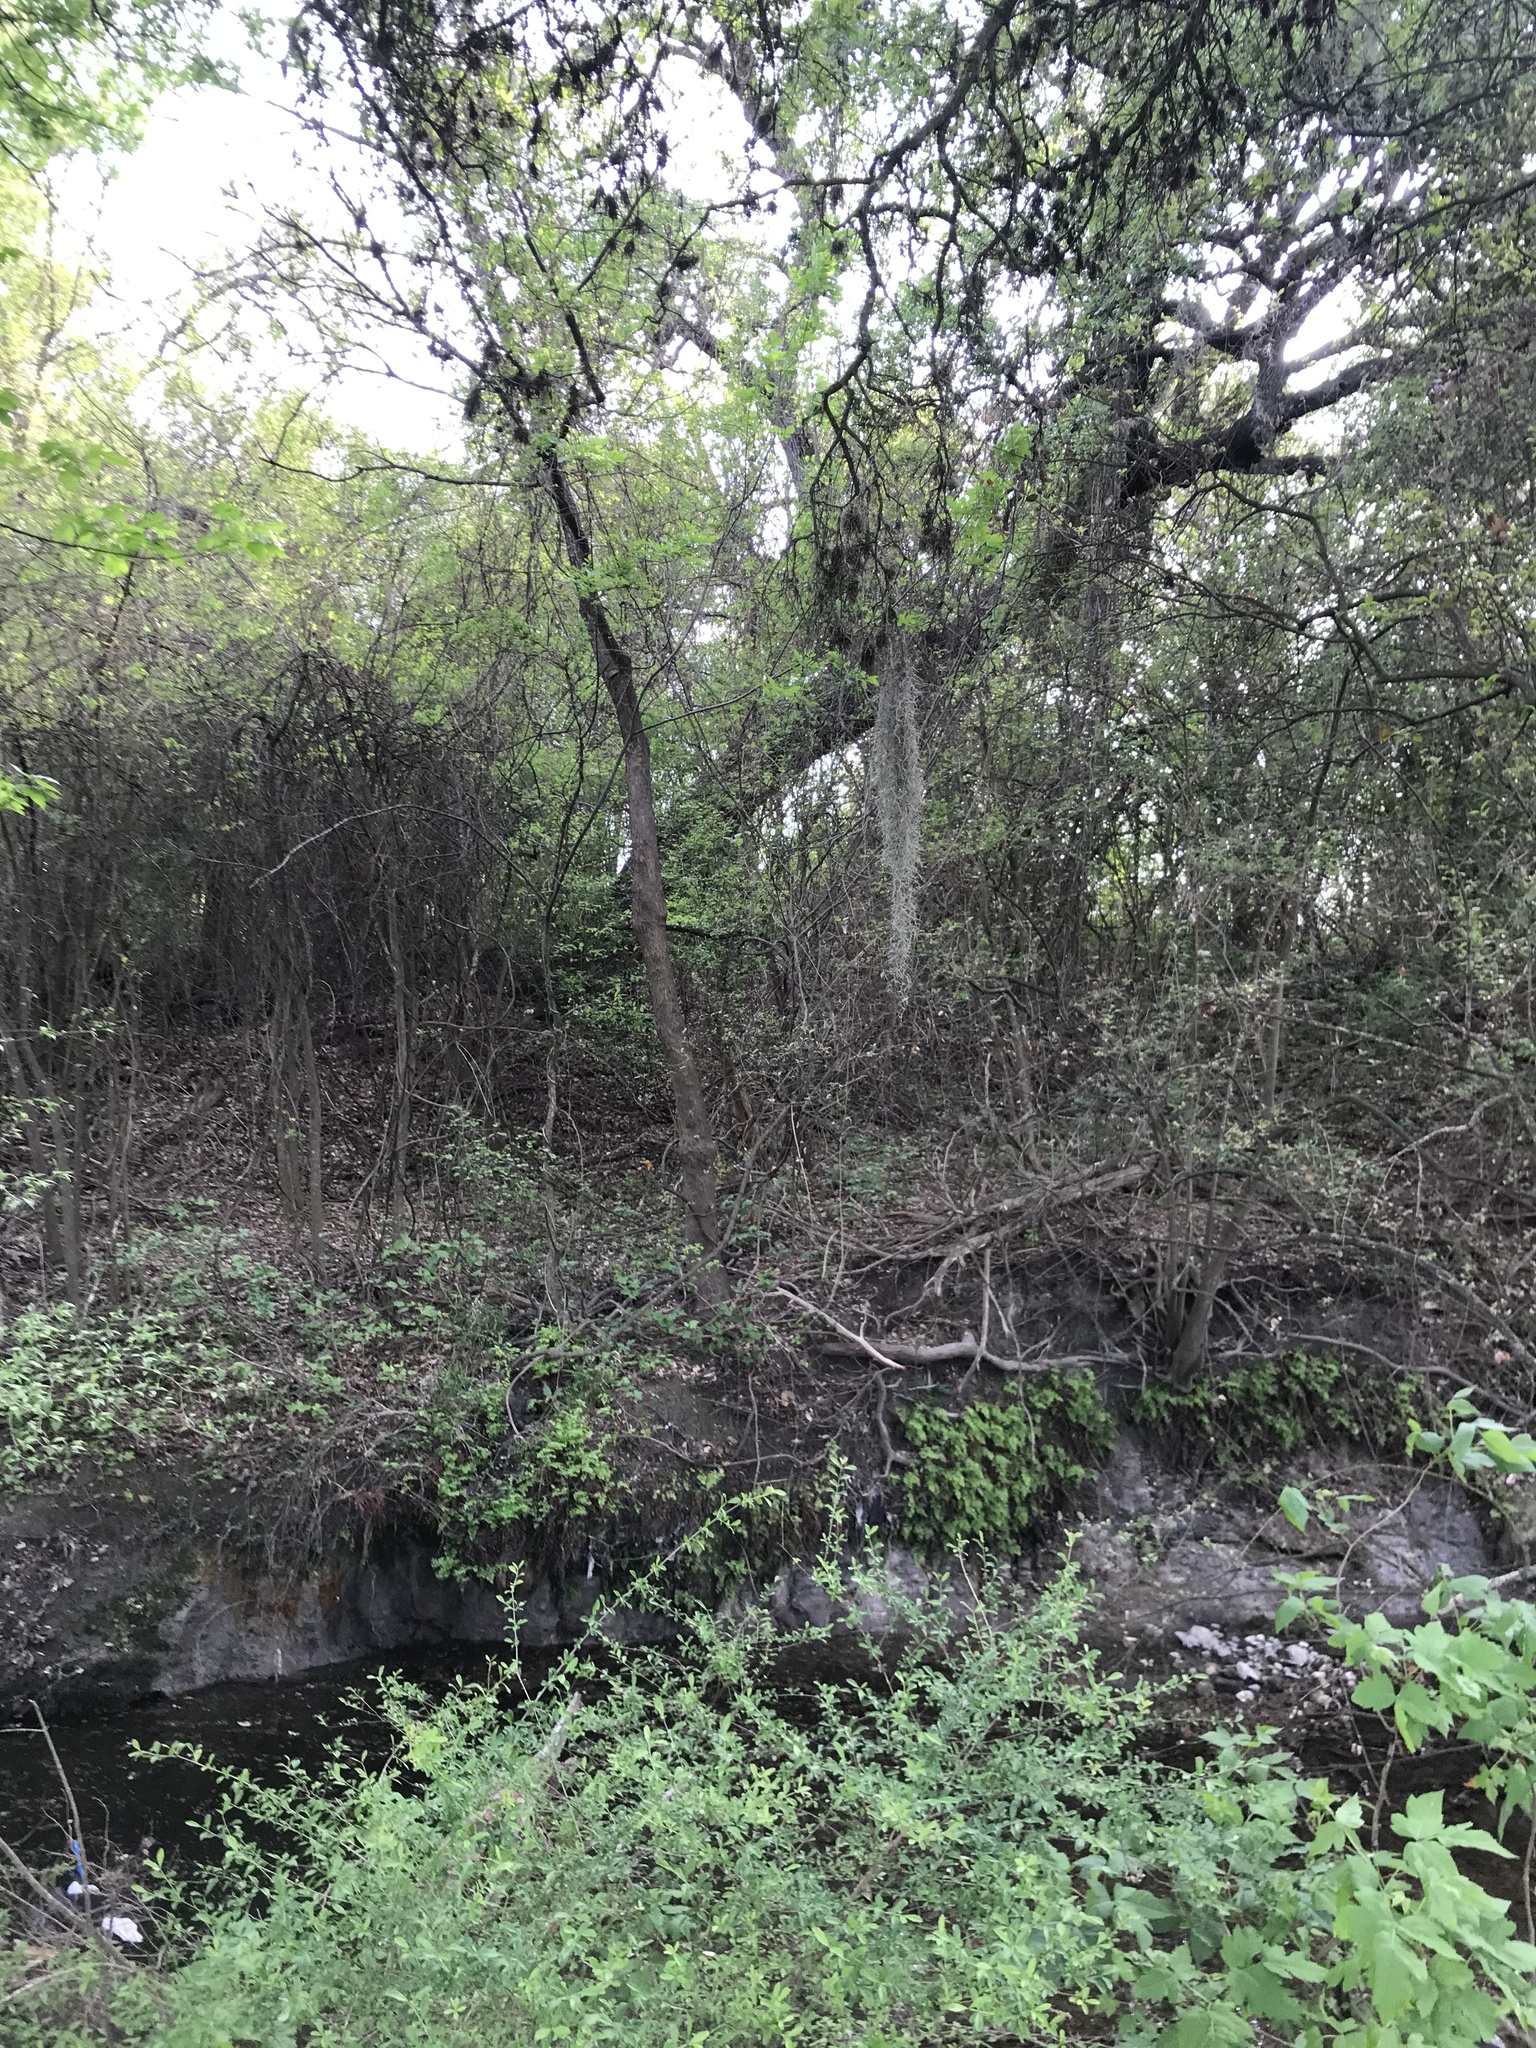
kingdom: Plantae
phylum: Tracheophyta
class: Liliopsida
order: Poales
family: Bromeliaceae
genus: Tillandsia
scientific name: Tillandsia usneoides
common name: Spanish moss
